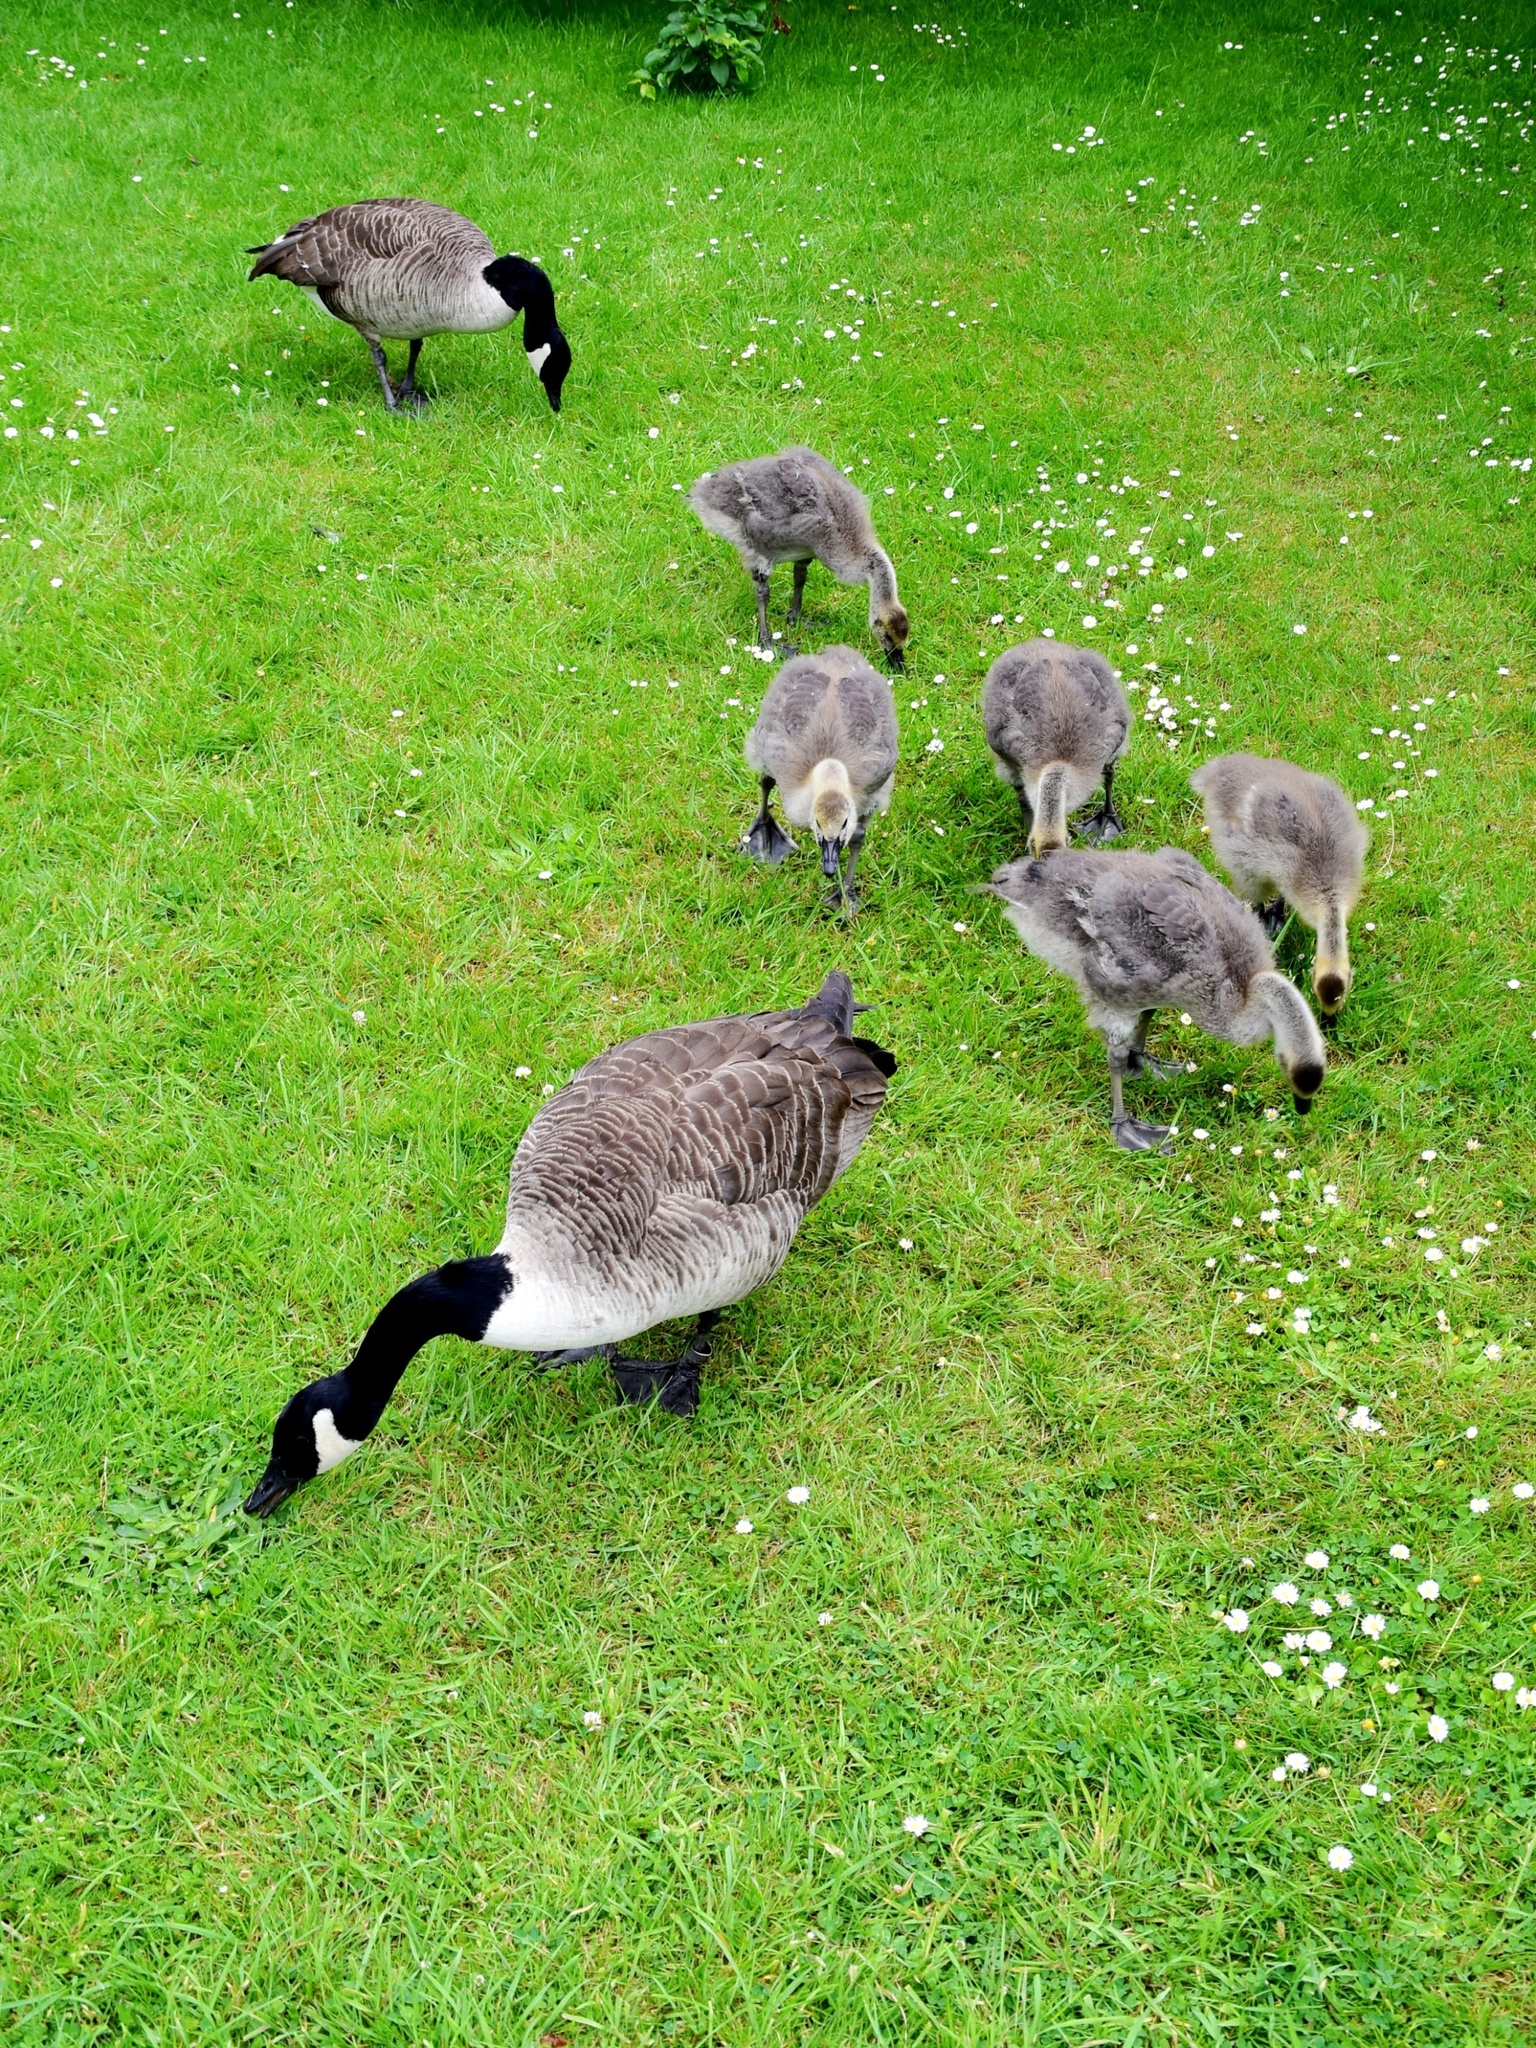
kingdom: Animalia
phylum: Chordata
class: Aves
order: Anseriformes
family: Anatidae
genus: Branta
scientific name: Branta canadensis
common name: Canada goose
